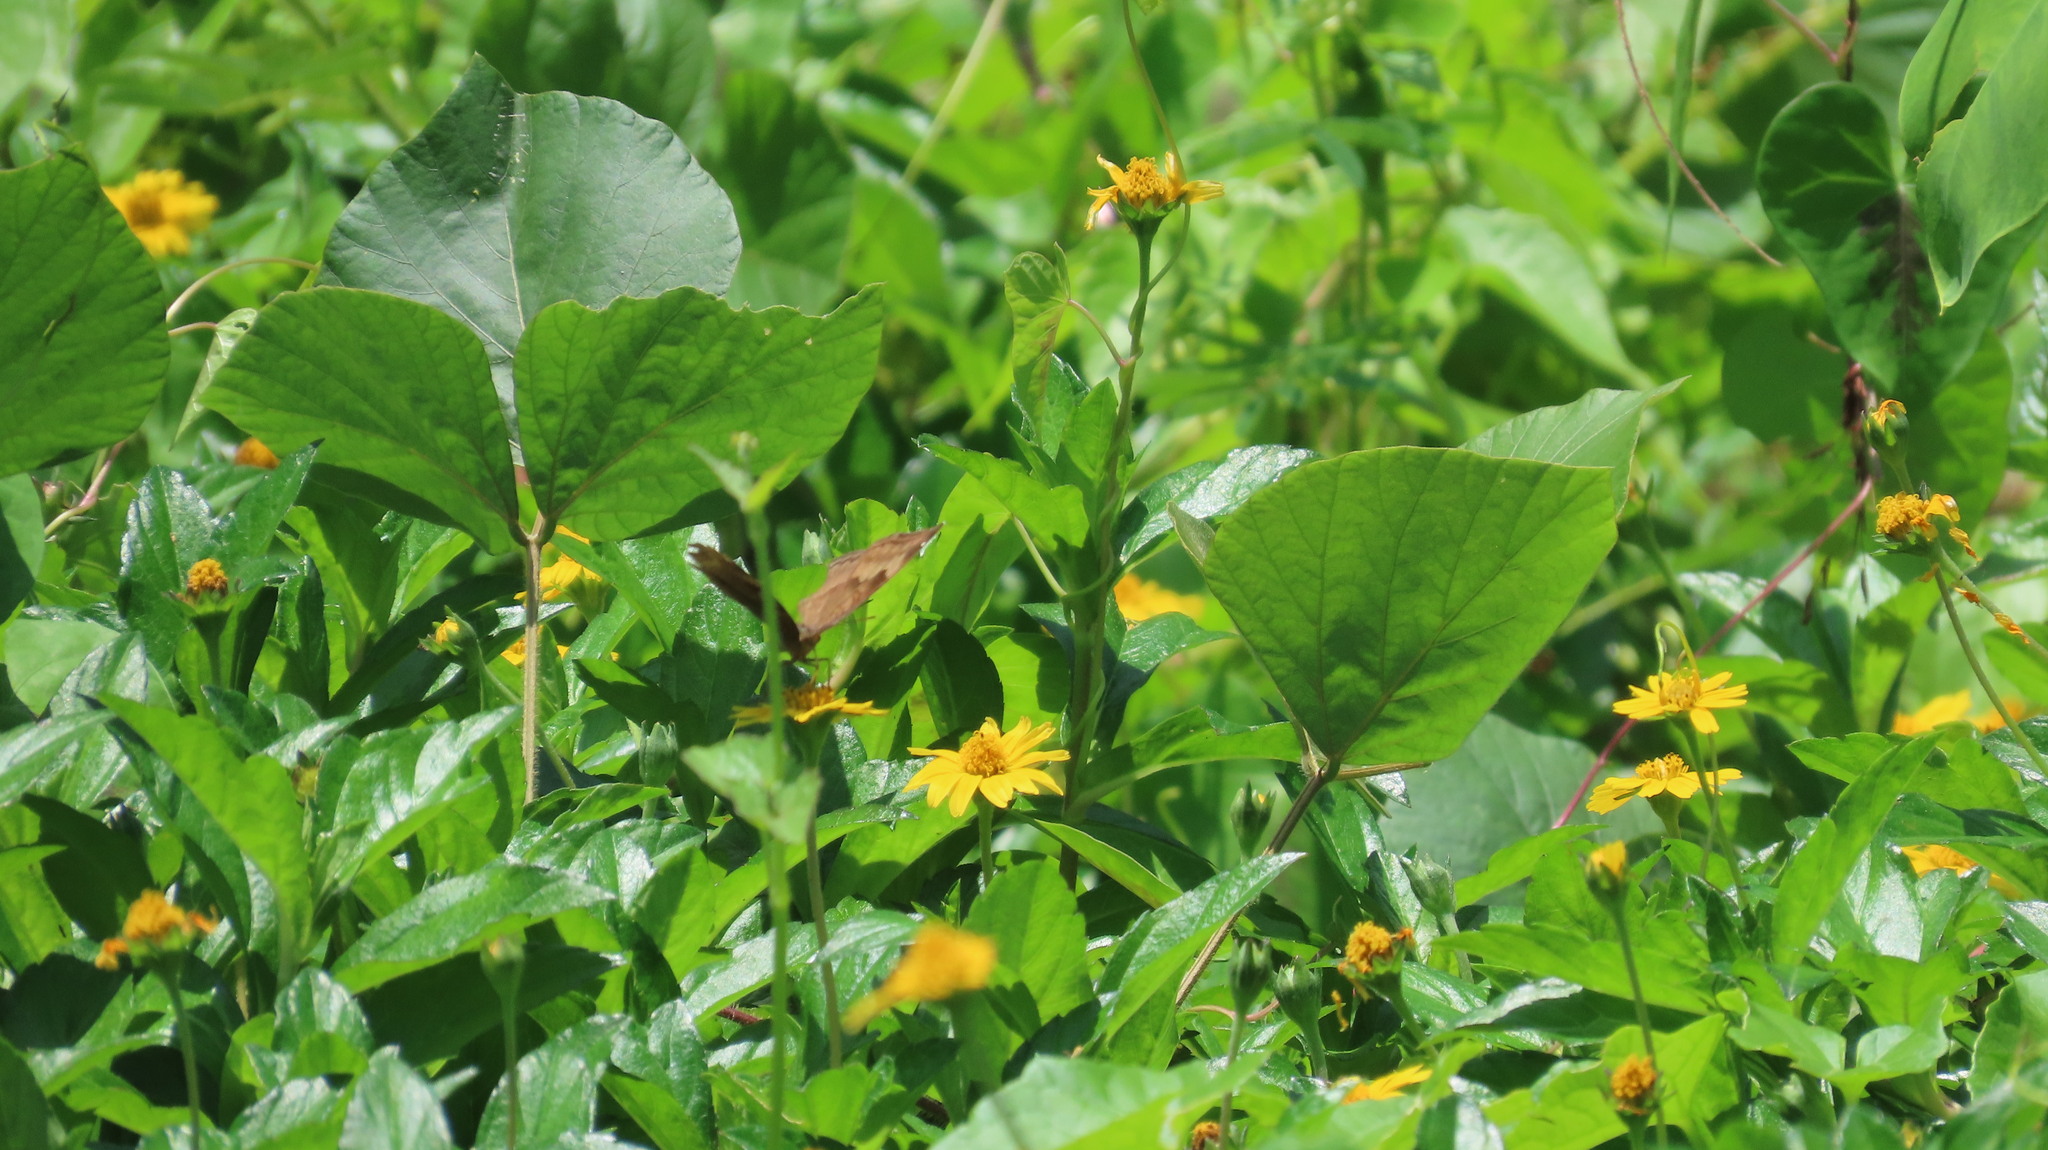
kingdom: Animalia
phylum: Arthropoda
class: Insecta
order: Lepidoptera
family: Nymphalidae
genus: Junonia
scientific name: Junonia iphita
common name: Chocolate pansy
